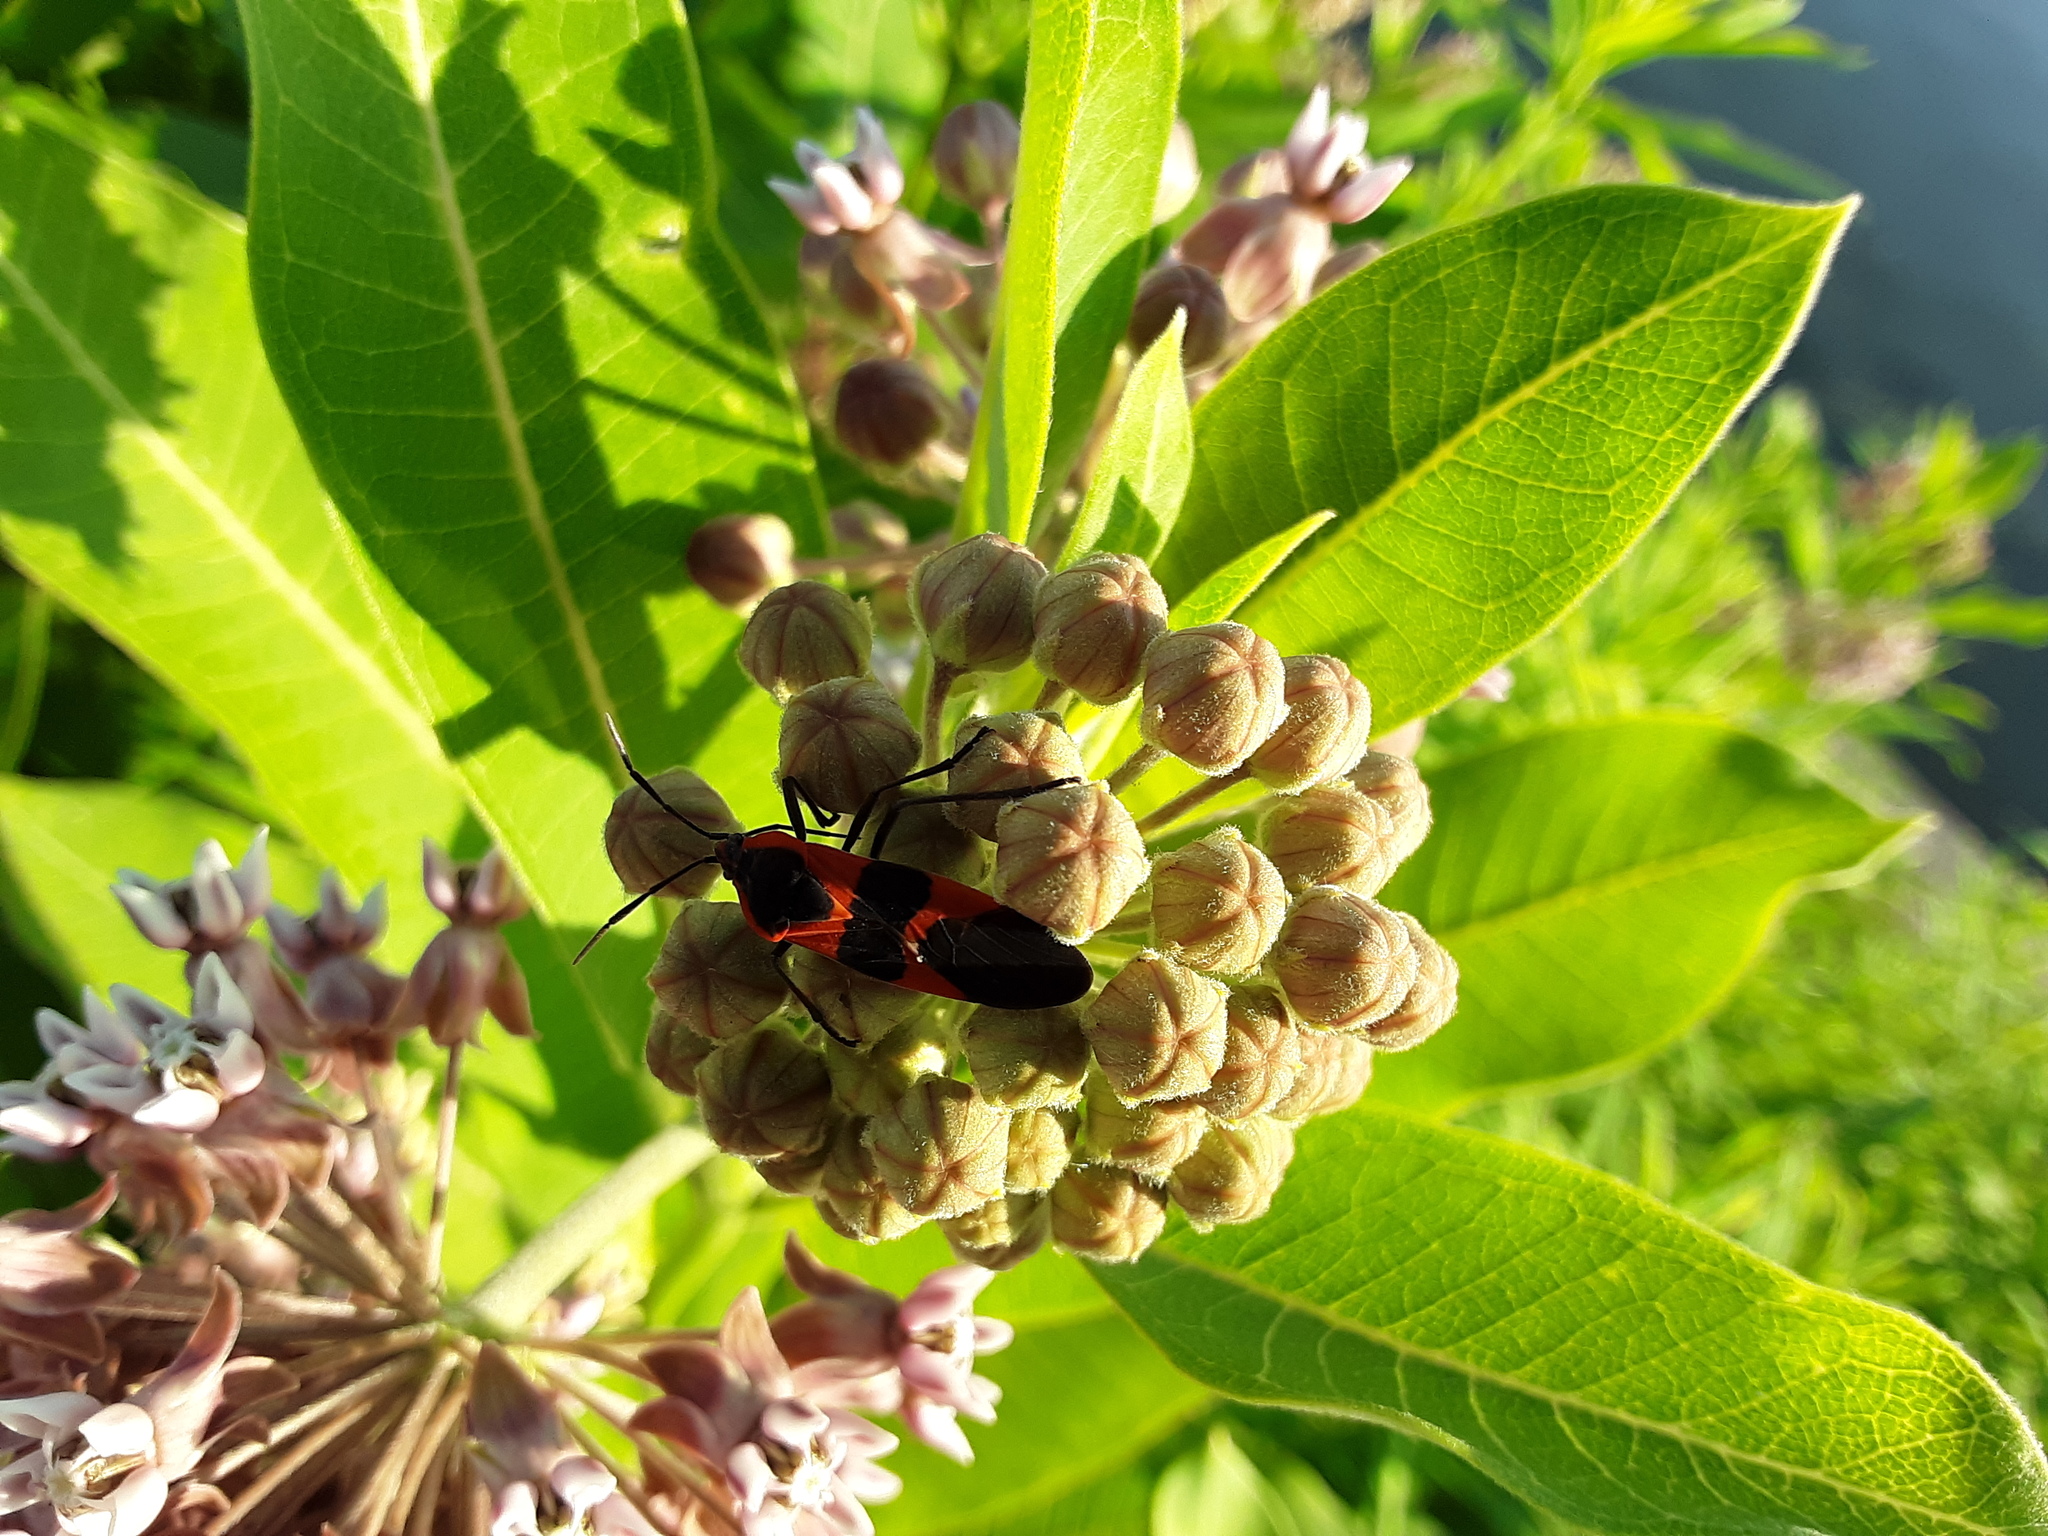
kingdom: Animalia
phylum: Arthropoda
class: Insecta
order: Hemiptera
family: Lygaeidae
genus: Oncopeltus
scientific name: Oncopeltus fasciatus
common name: Large milkweed bug
